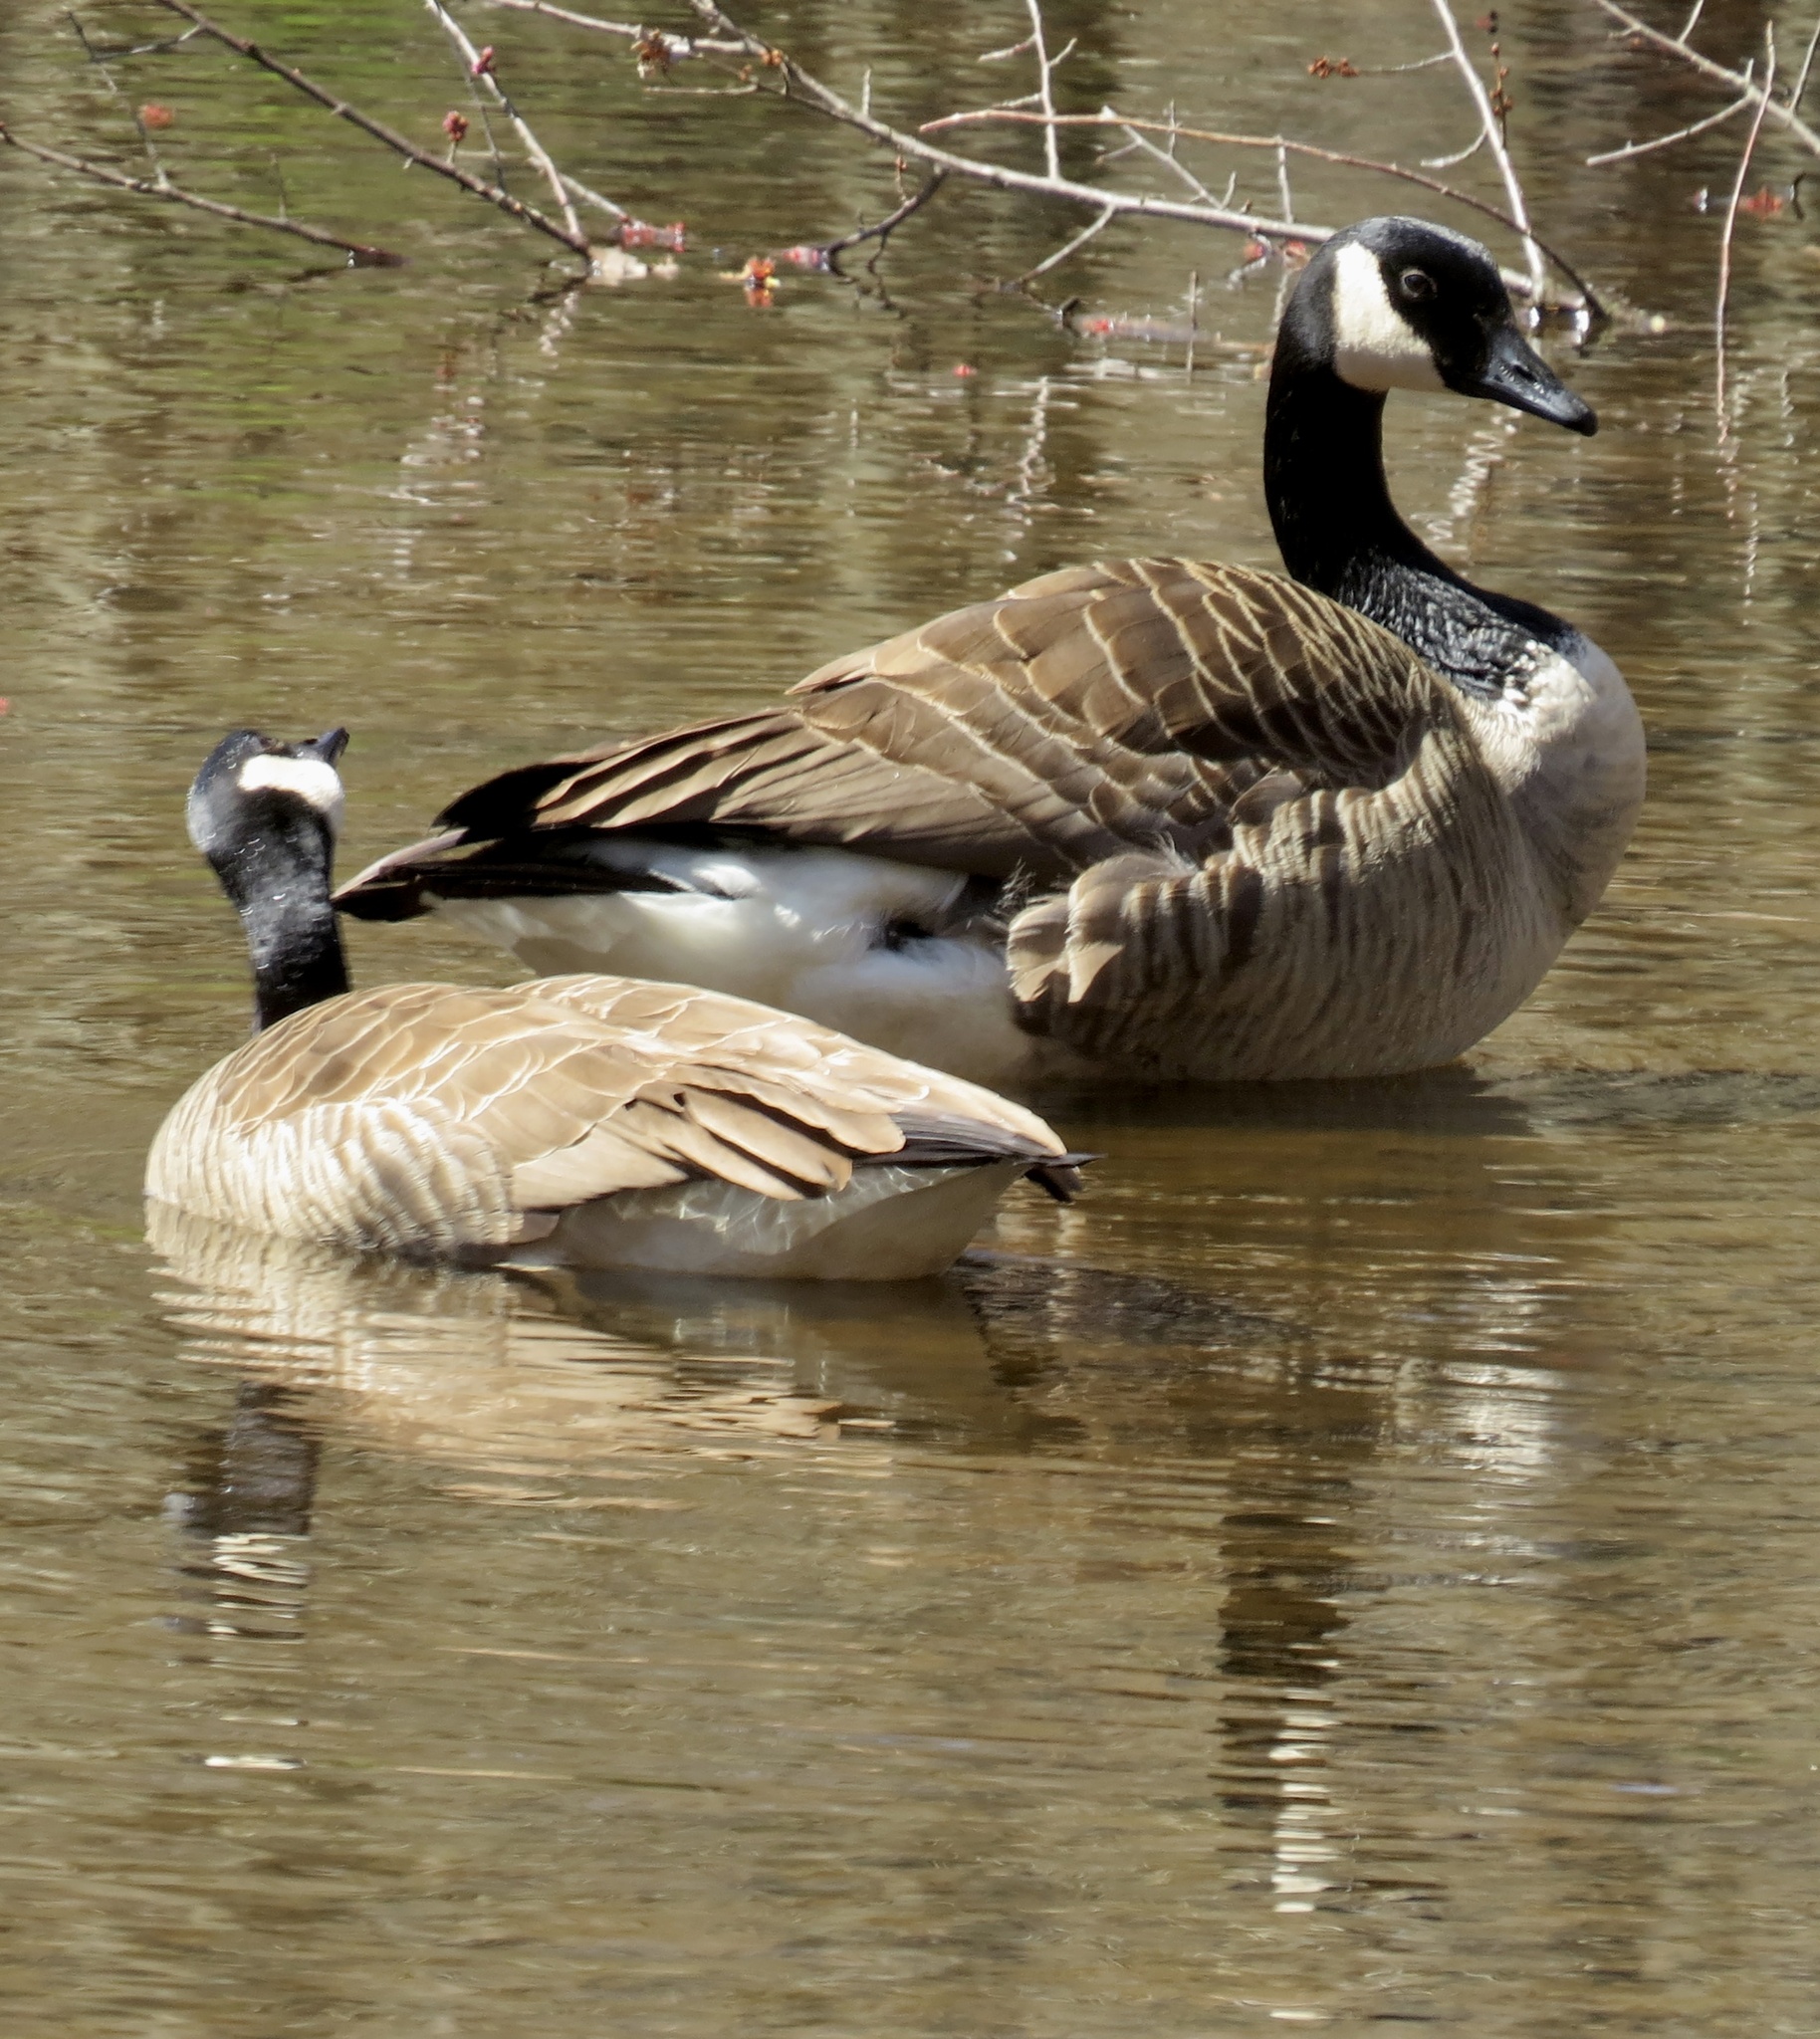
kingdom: Animalia
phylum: Chordata
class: Aves
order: Anseriformes
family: Anatidae
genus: Branta
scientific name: Branta canadensis
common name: Canada goose
